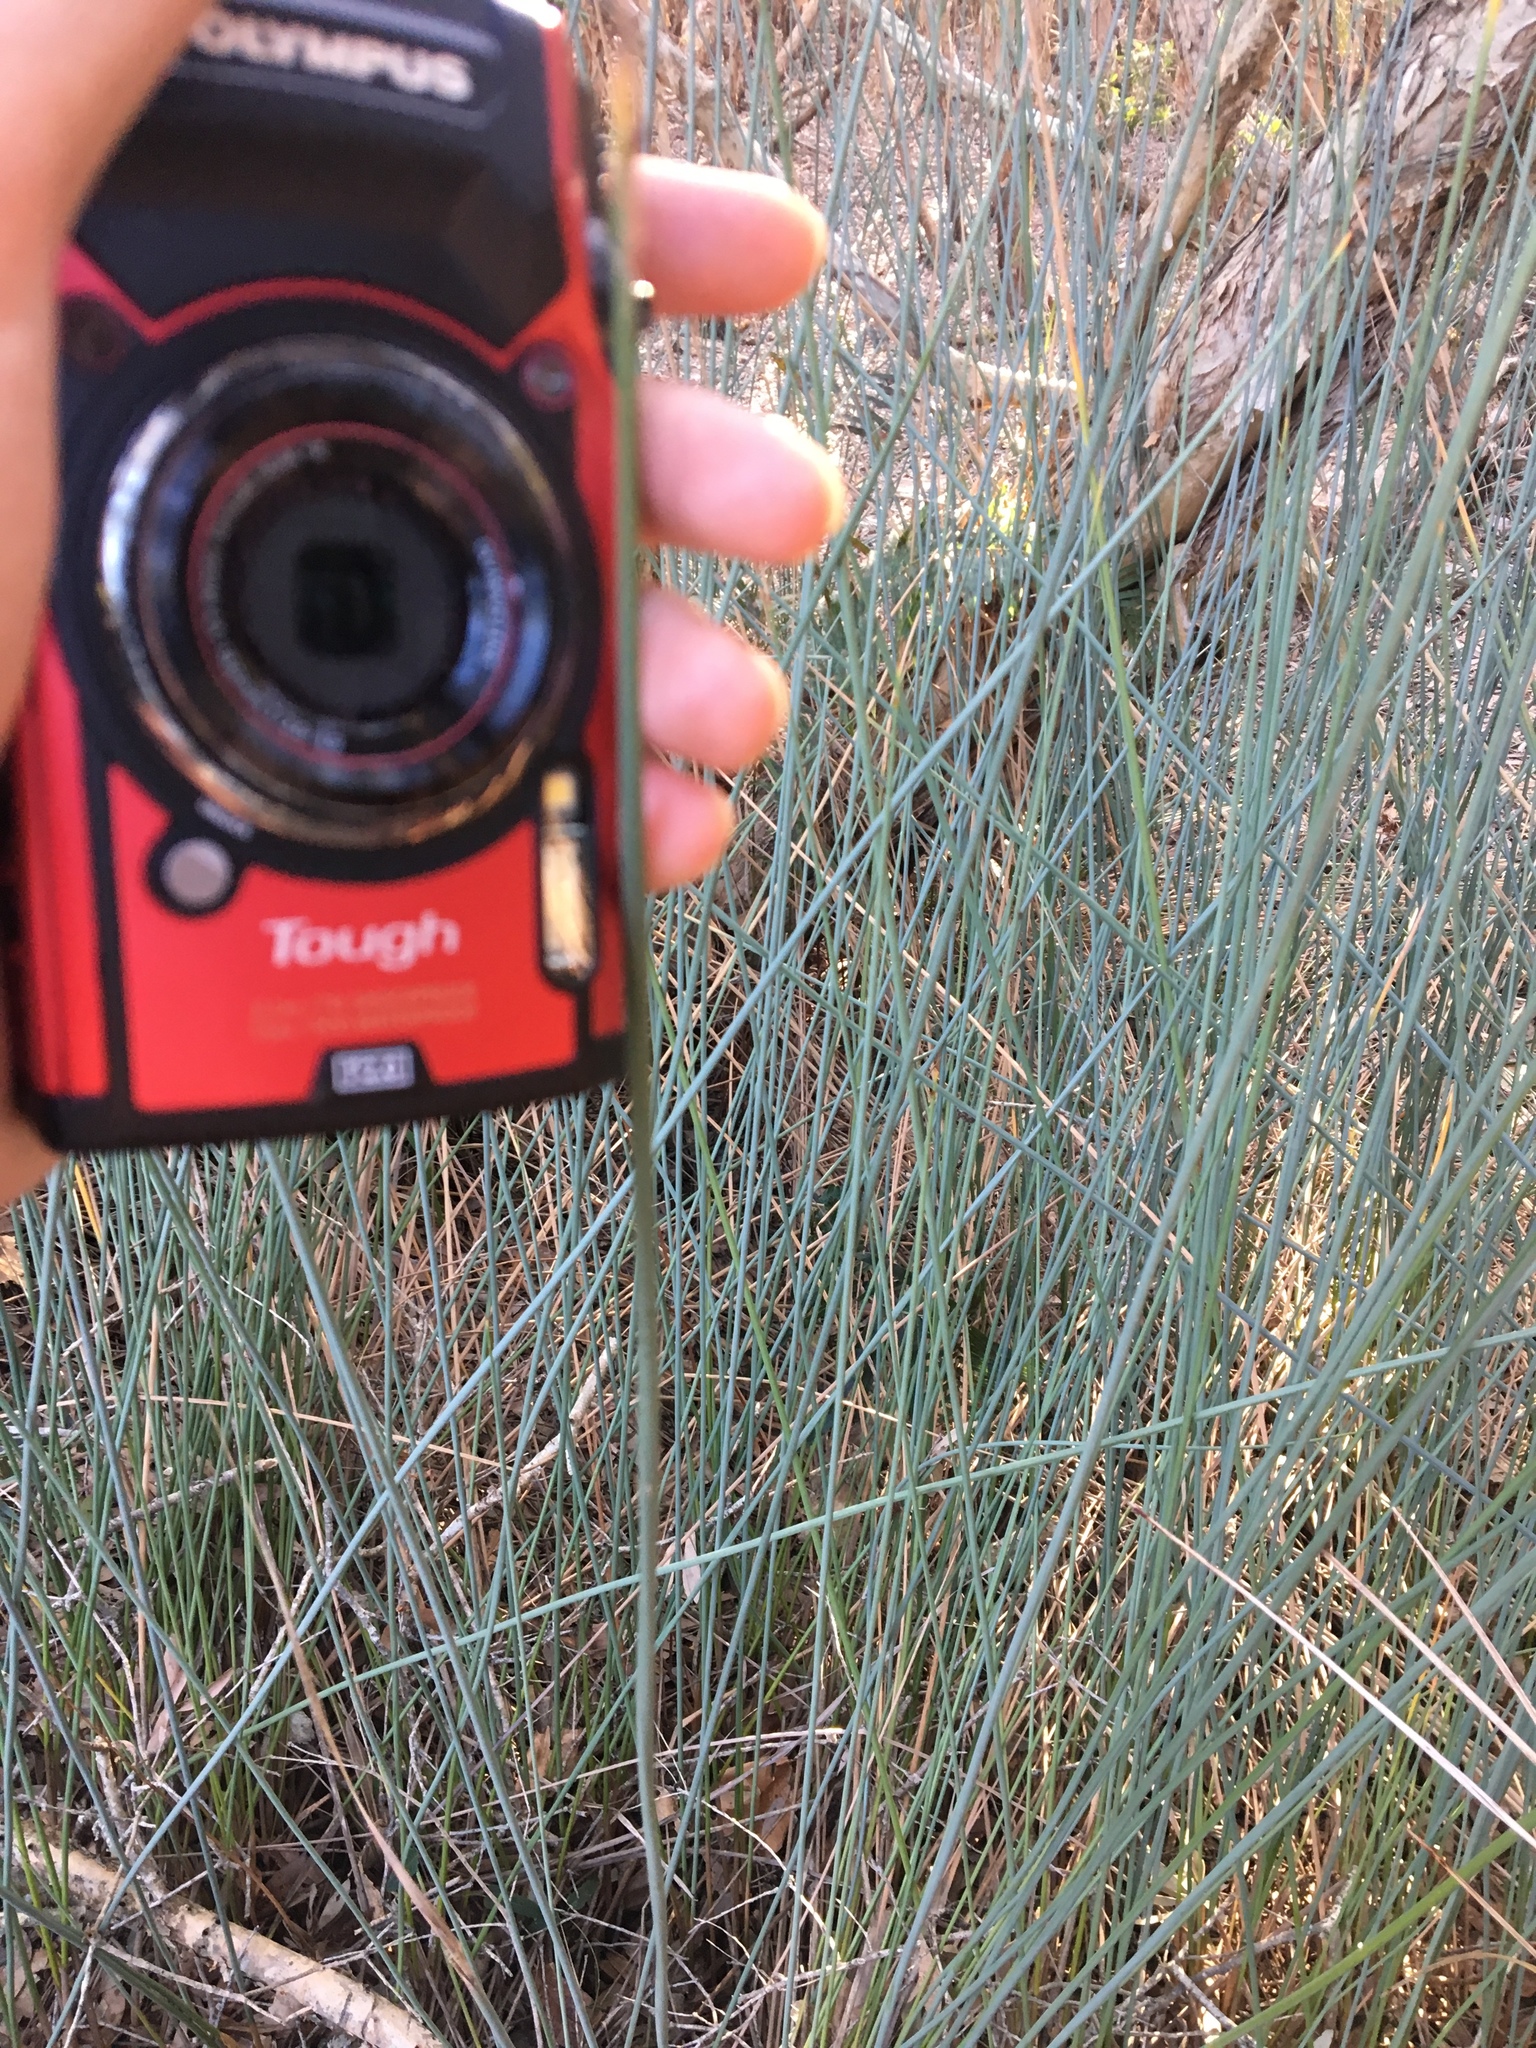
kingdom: Plantae
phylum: Tracheophyta
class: Liliopsida
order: Poales
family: Cyperaceae
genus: Lepironia
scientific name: Lepironia articulata
